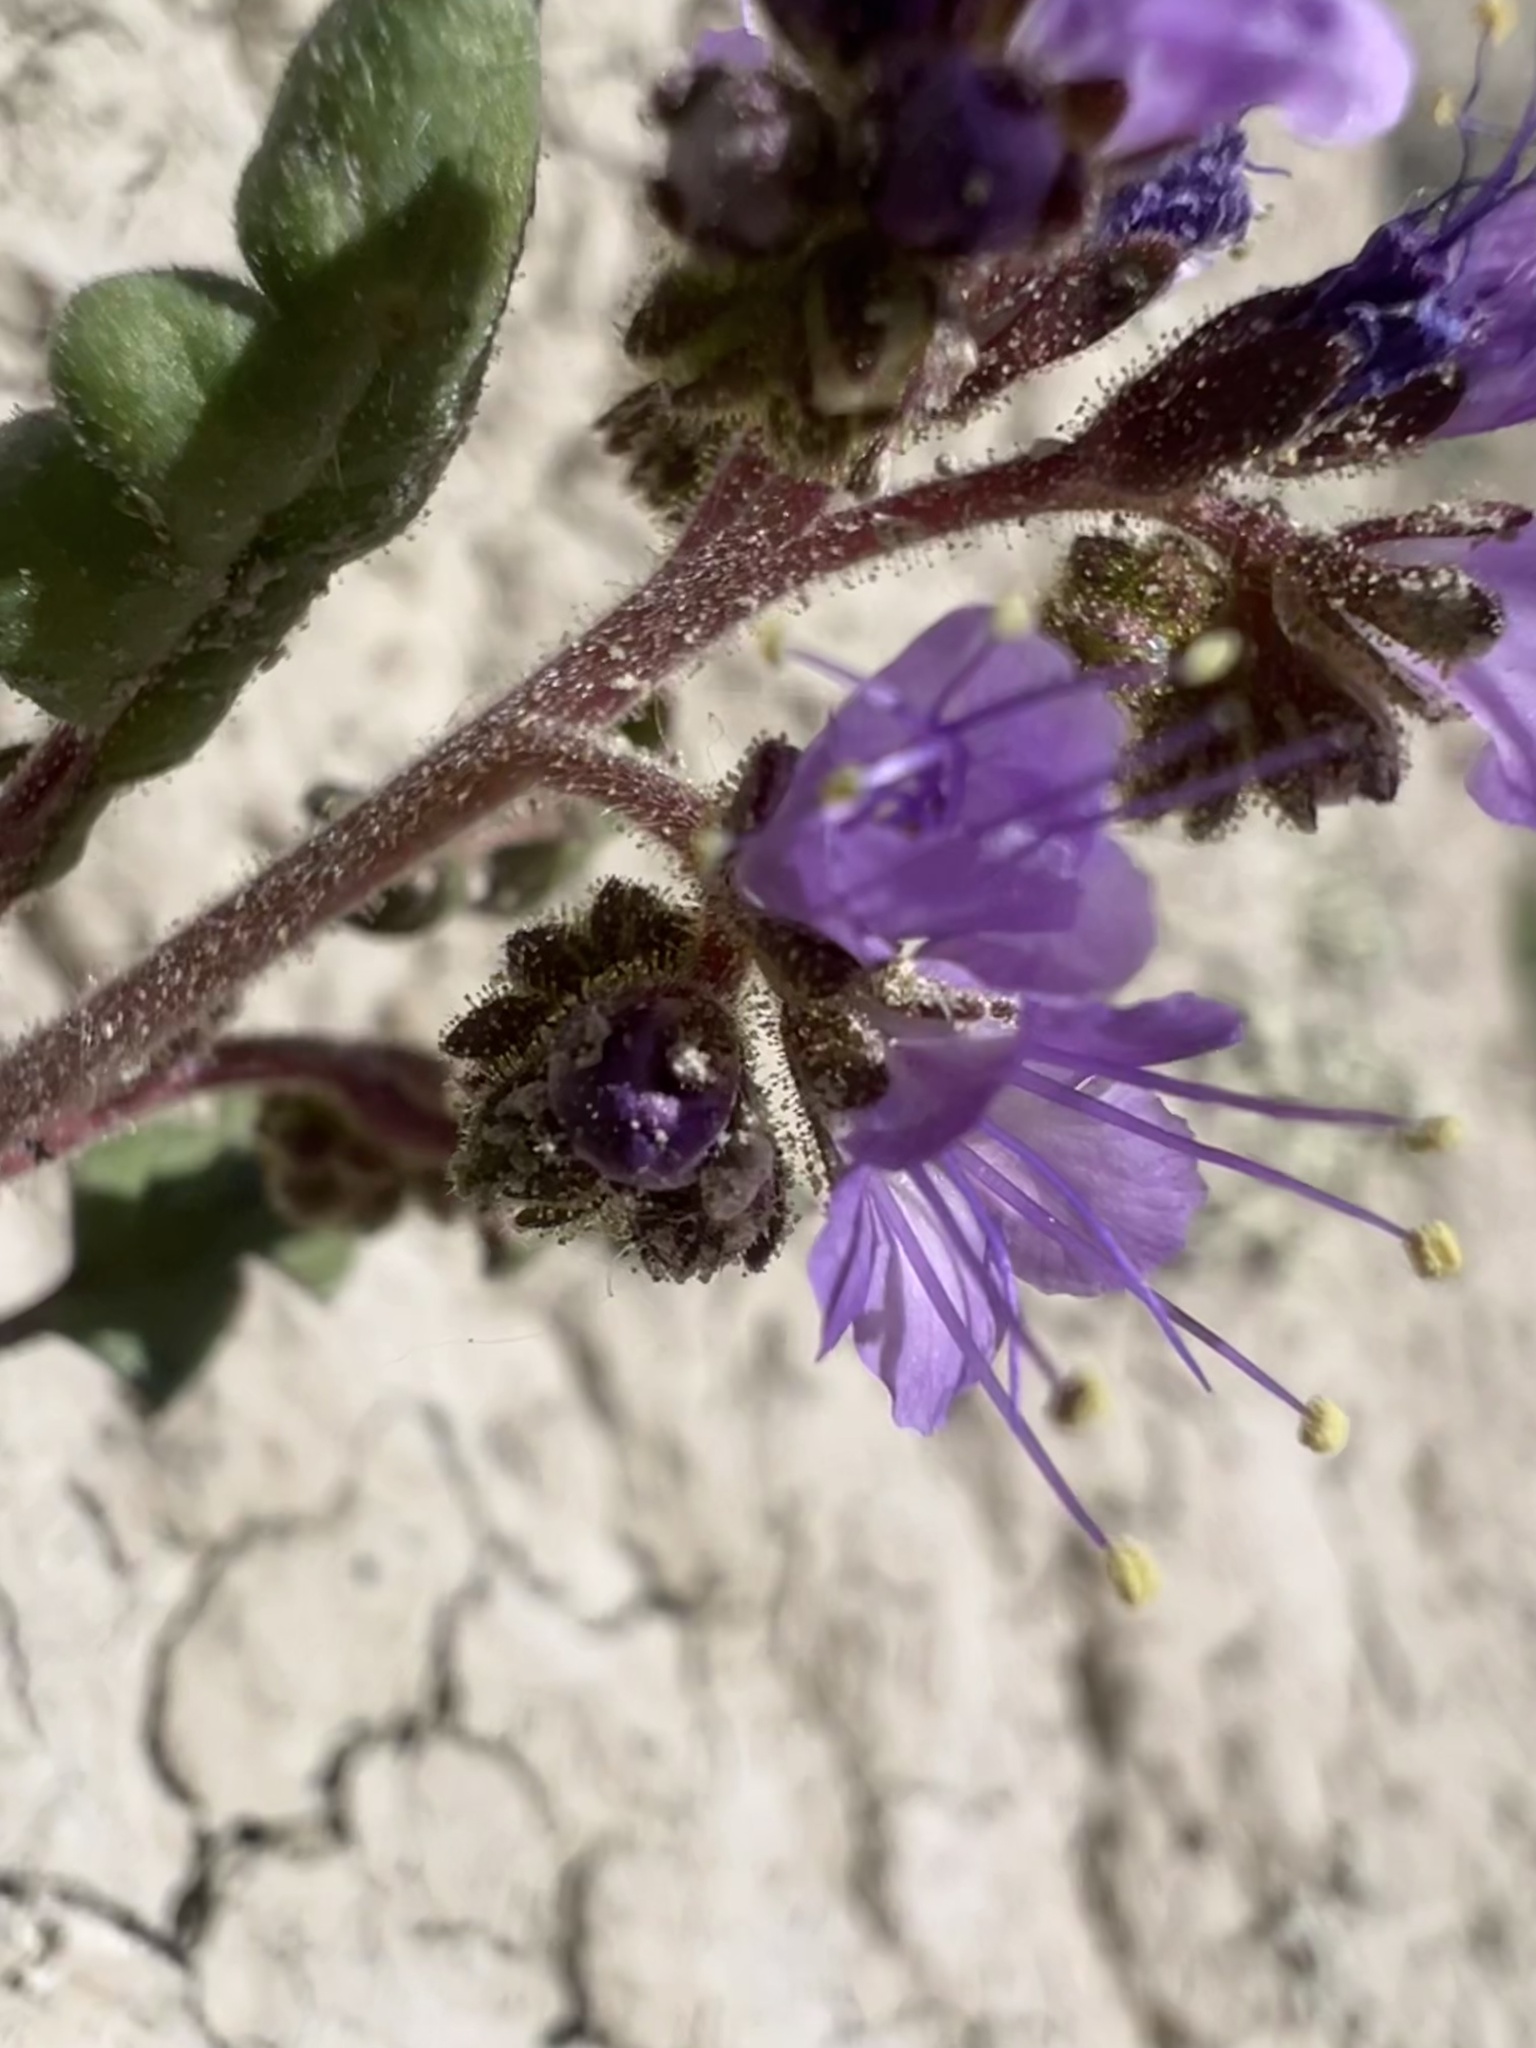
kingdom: Plantae
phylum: Tracheophyta
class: Magnoliopsida
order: Boraginales
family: Hydrophyllaceae
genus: Phacelia
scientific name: Phacelia gina-glenneae
